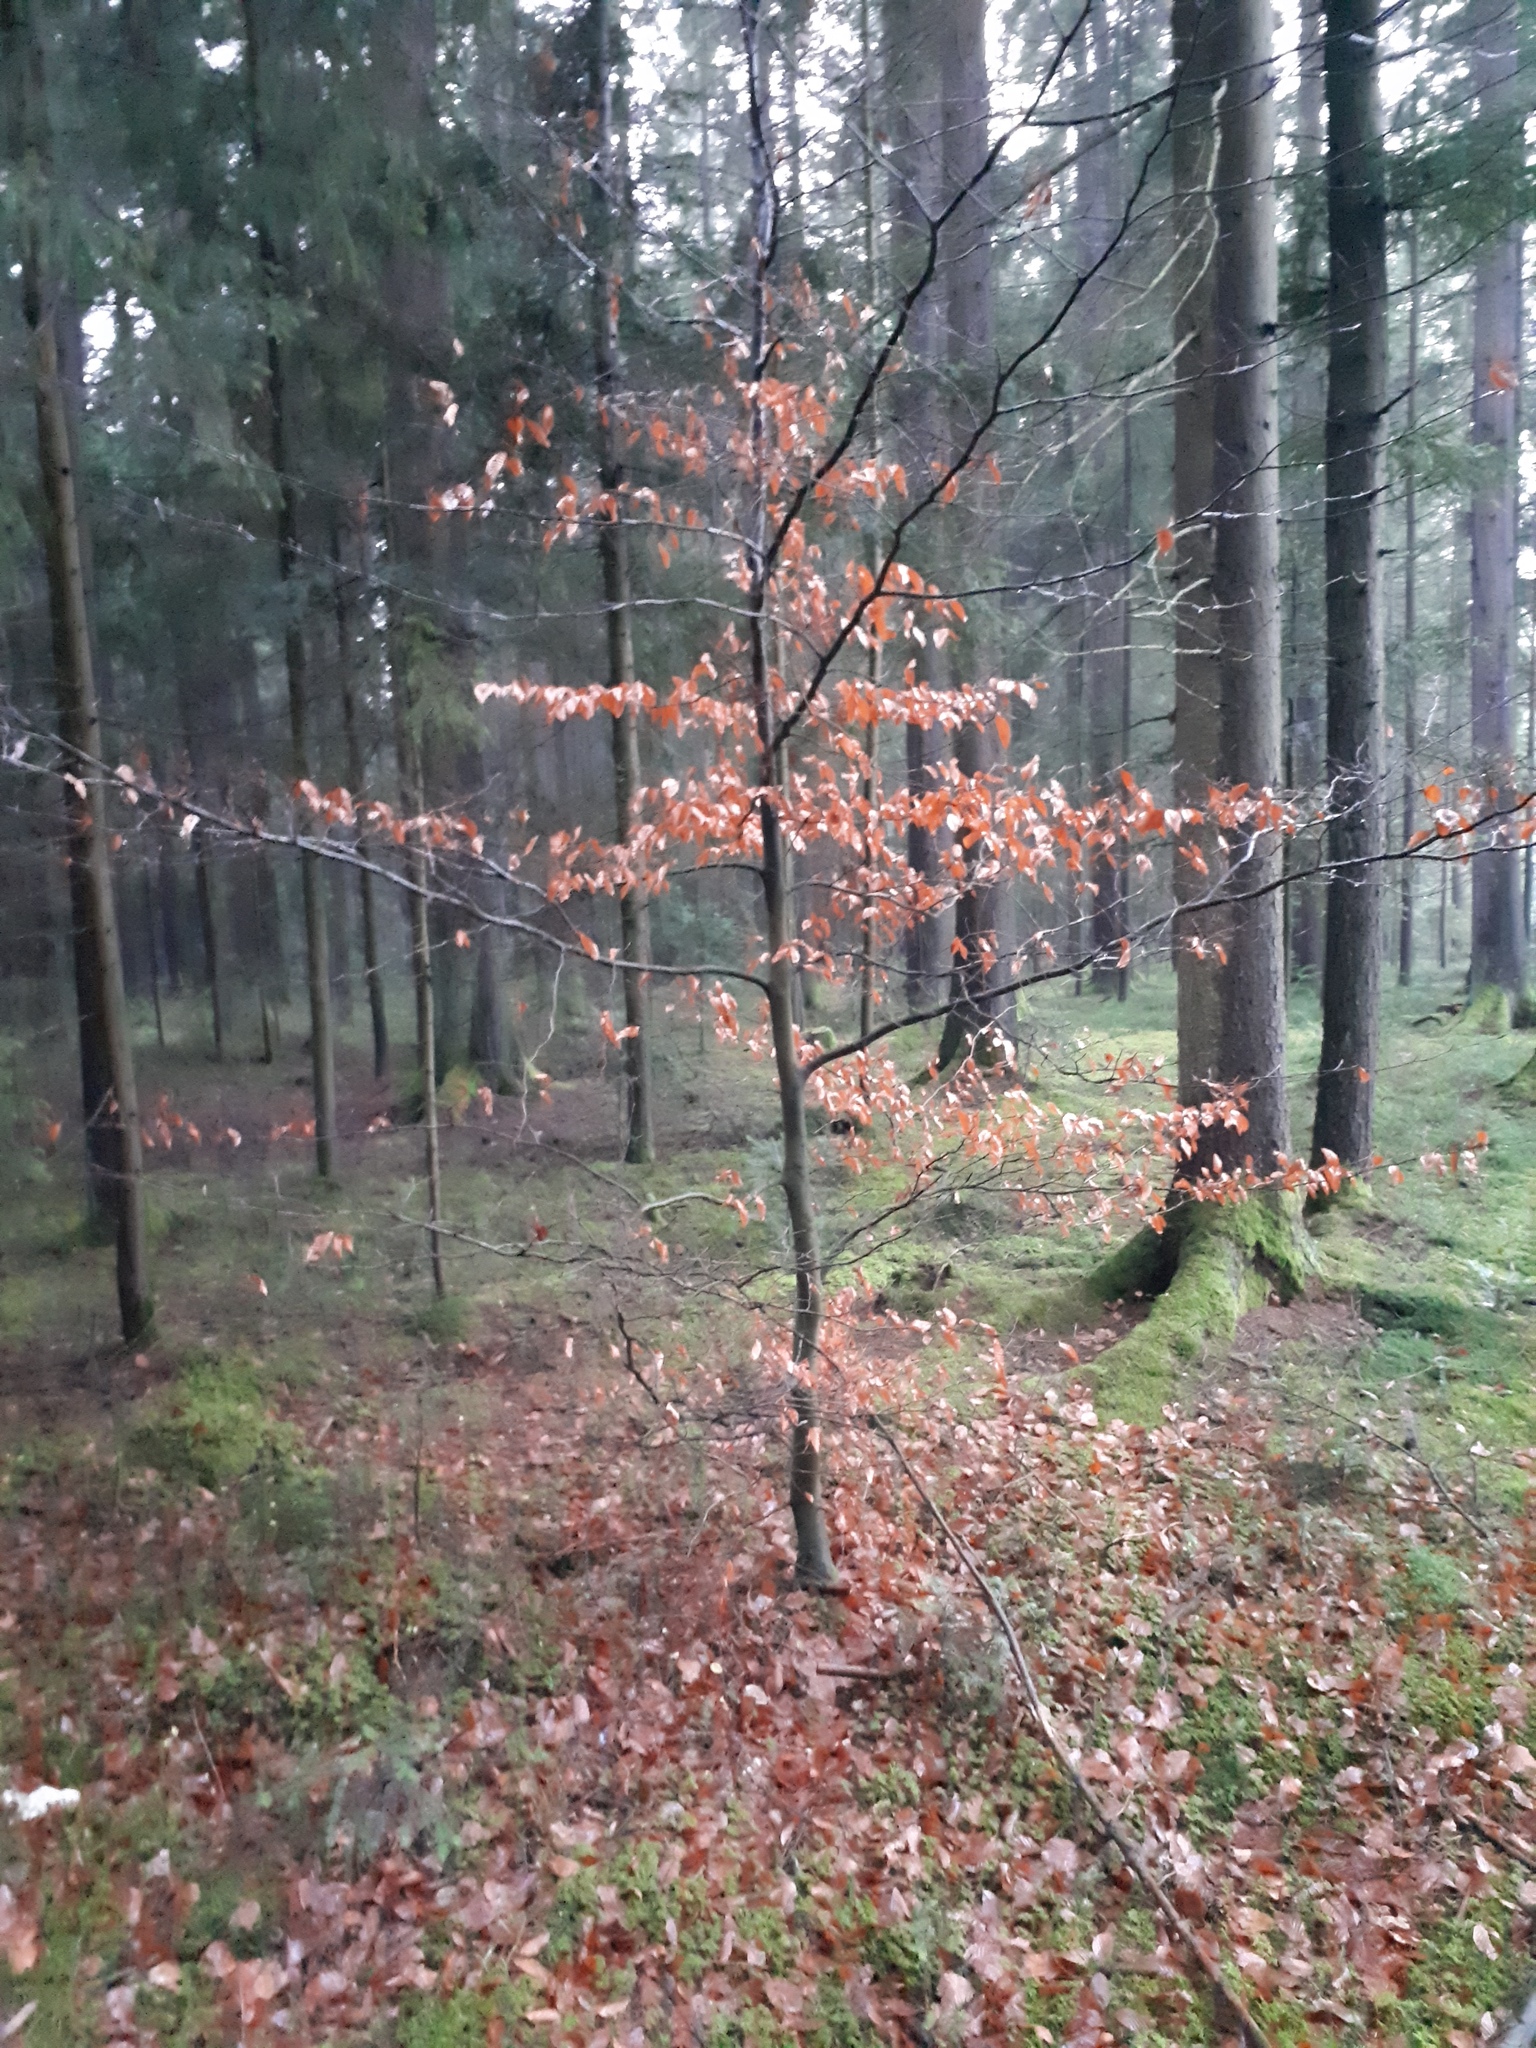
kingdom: Plantae
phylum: Tracheophyta
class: Magnoliopsida
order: Fagales
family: Fagaceae
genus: Fagus
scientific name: Fagus sylvatica
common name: Beech
